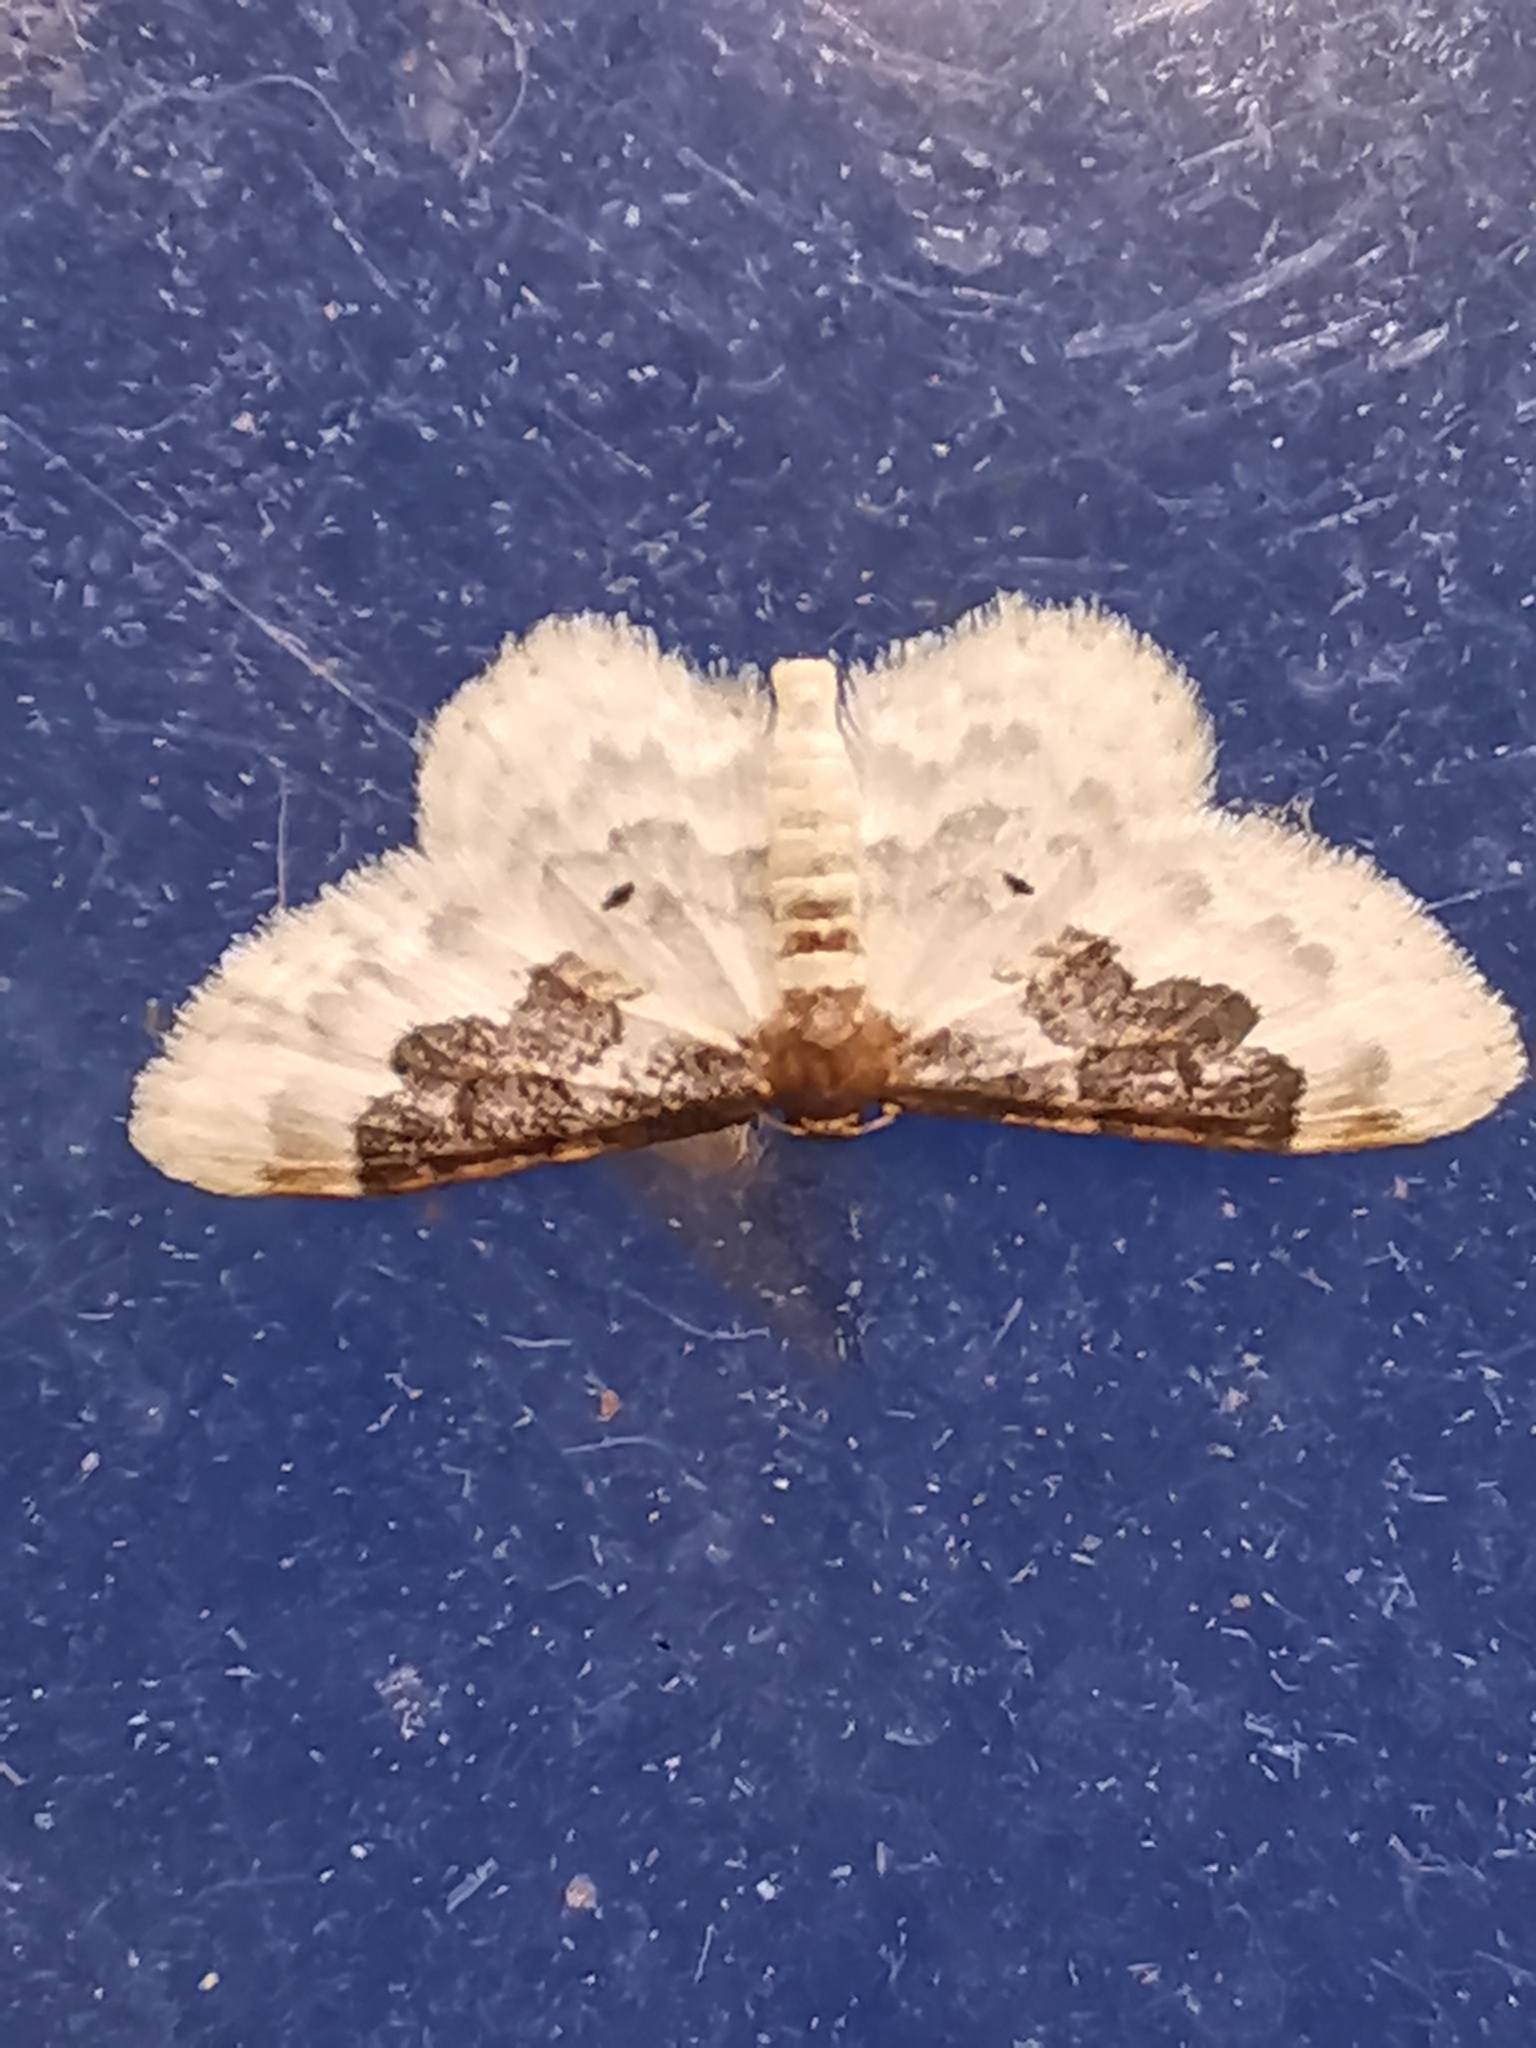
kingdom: Animalia
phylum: Arthropoda
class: Insecta
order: Lepidoptera
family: Geometridae
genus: Idaea
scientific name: Idaea rusticata
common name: Least carpet
